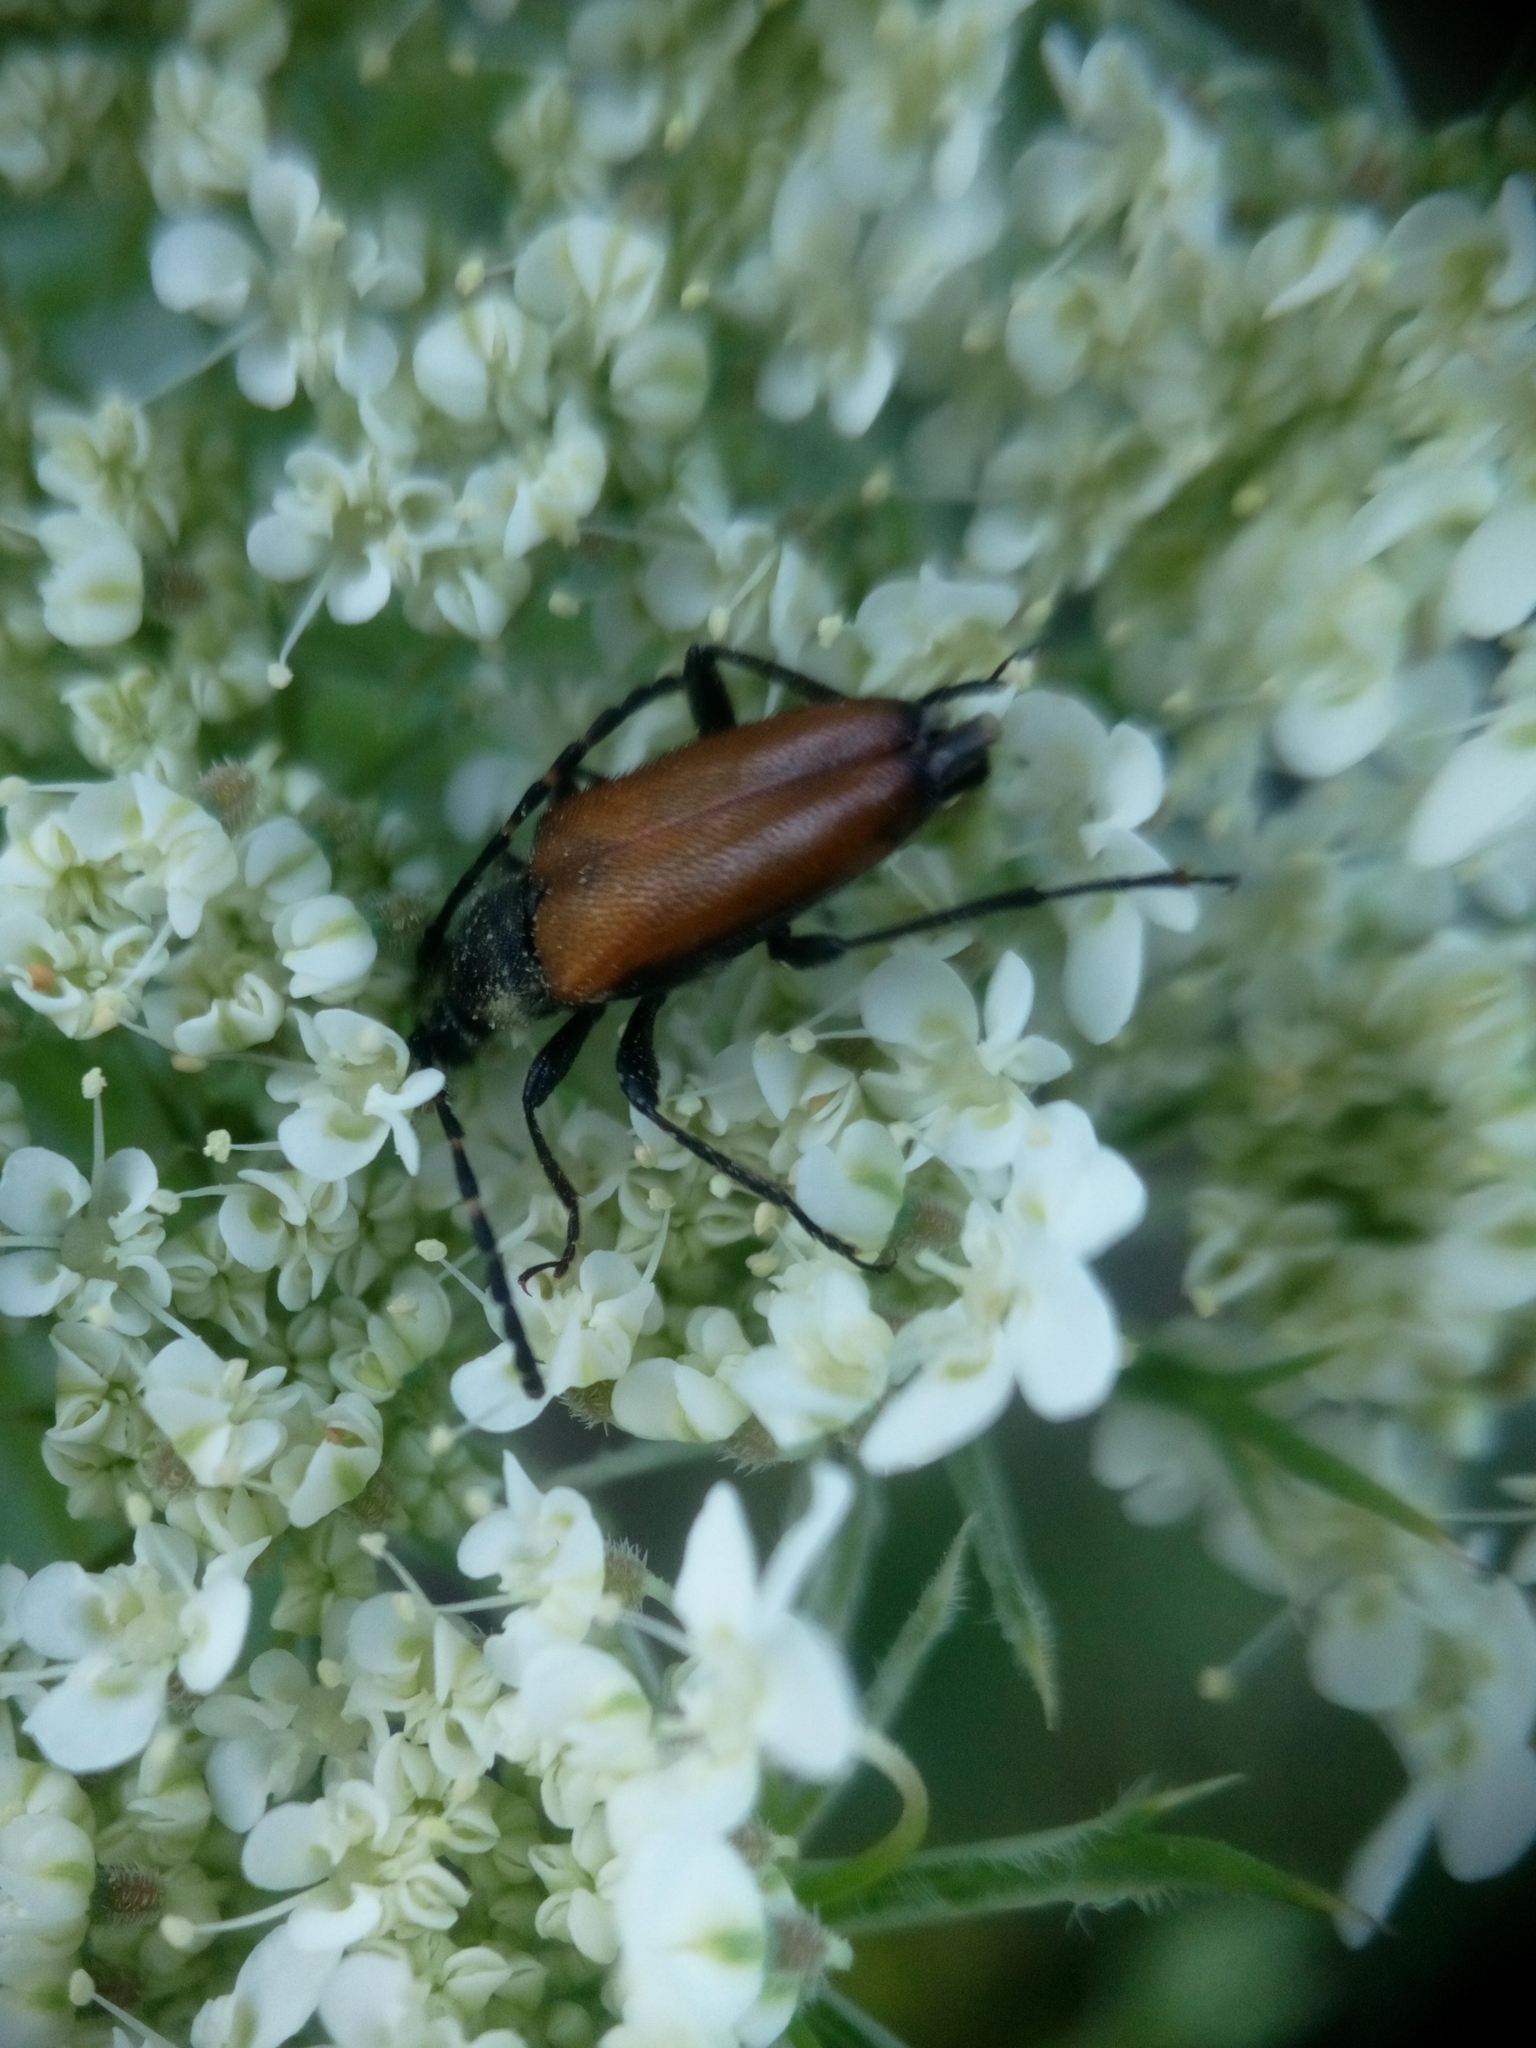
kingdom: Animalia
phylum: Arthropoda
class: Insecta
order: Coleoptera
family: Cerambycidae
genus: Paracorymbia
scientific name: Paracorymbia maculicornis
